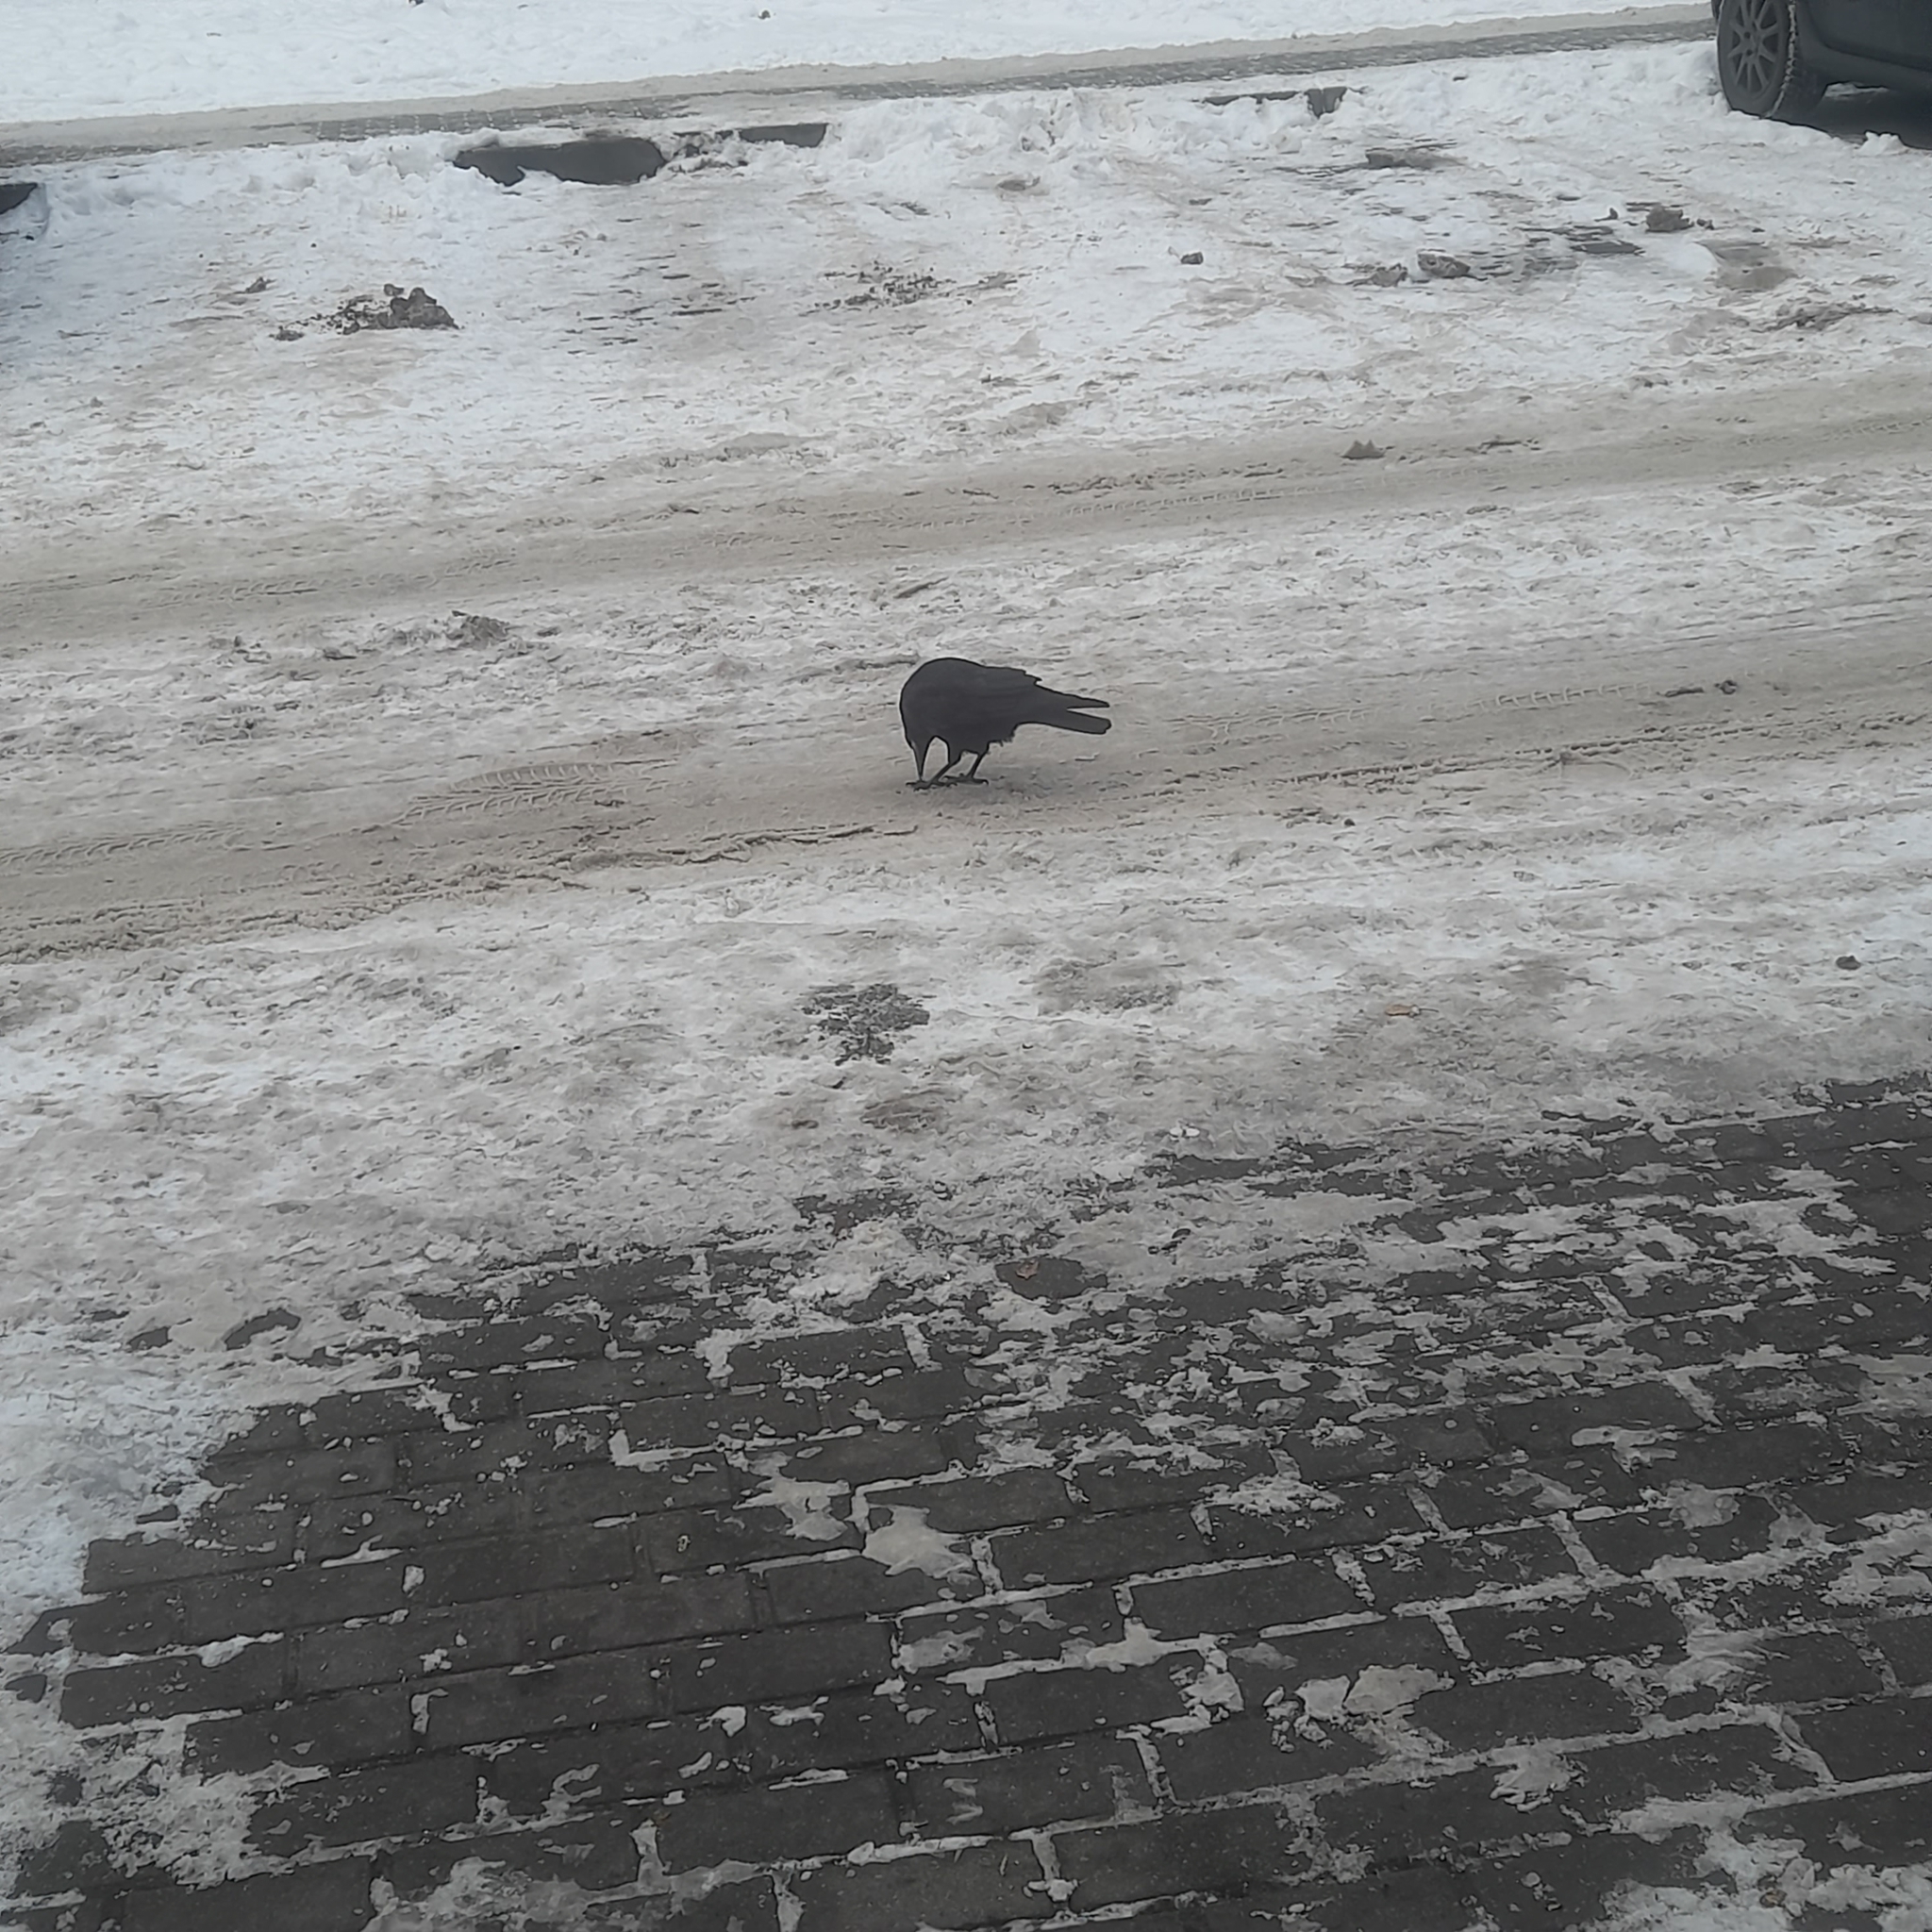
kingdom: Animalia
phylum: Chordata
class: Aves
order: Passeriformes
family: Corvidae
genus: Corvus
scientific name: Corvus frugilegus
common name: Rook
